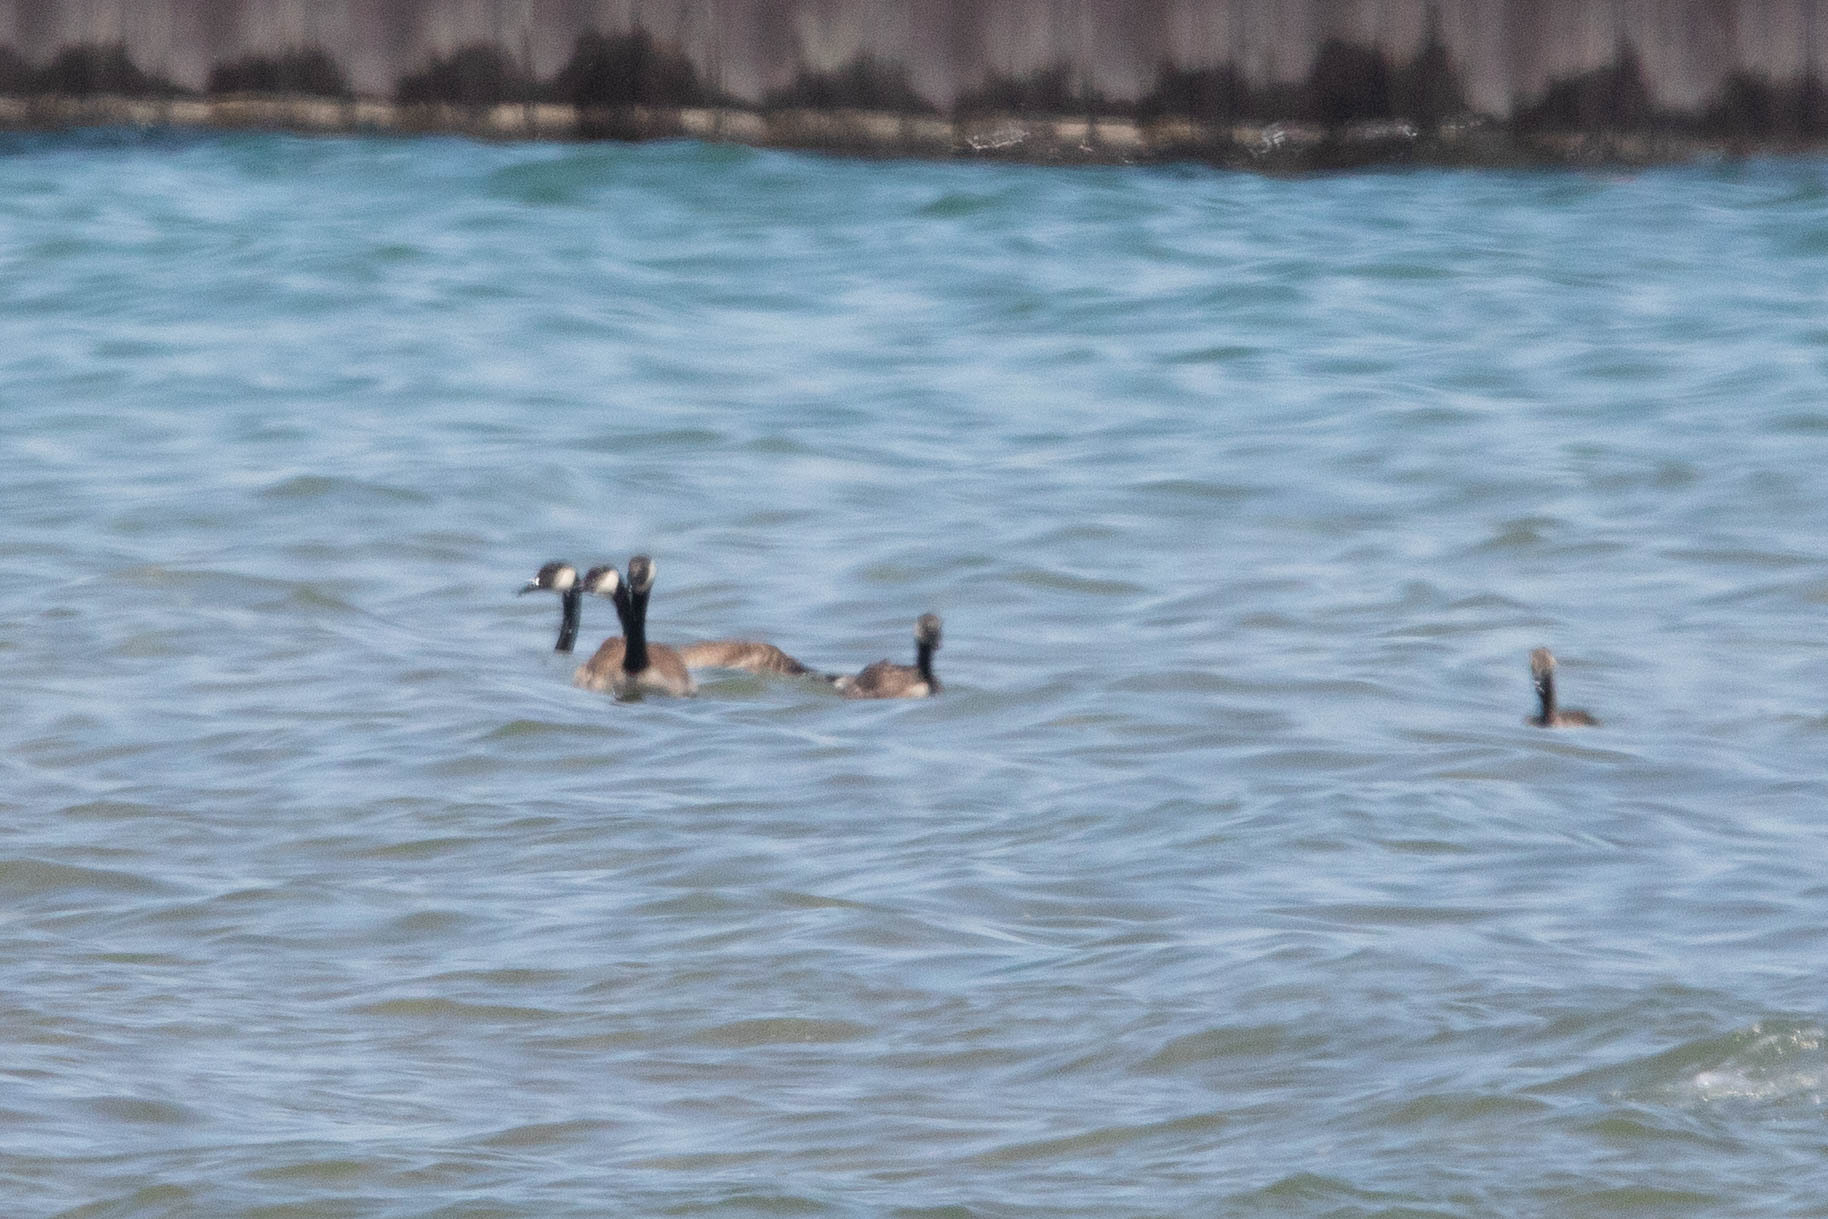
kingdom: Animalia
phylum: Chordata
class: Aves
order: Anseriformes
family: Anatidae
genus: Branta
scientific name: Branta canadensis
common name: Canada goose
